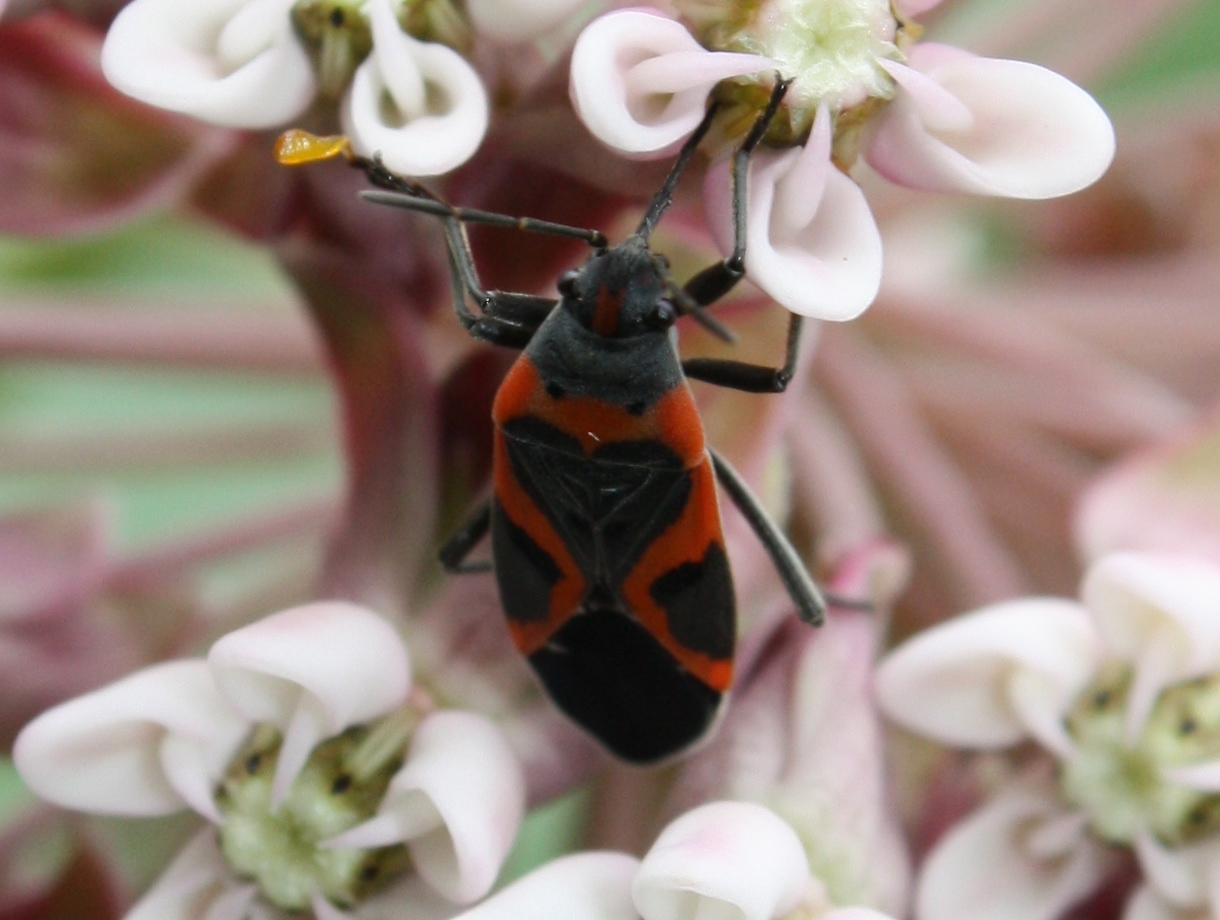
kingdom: Animalia
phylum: Arthropoda
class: Insecta
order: Hemiptera
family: Lygaeidae
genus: Lygaeus
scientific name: Lygaeus kalmii
